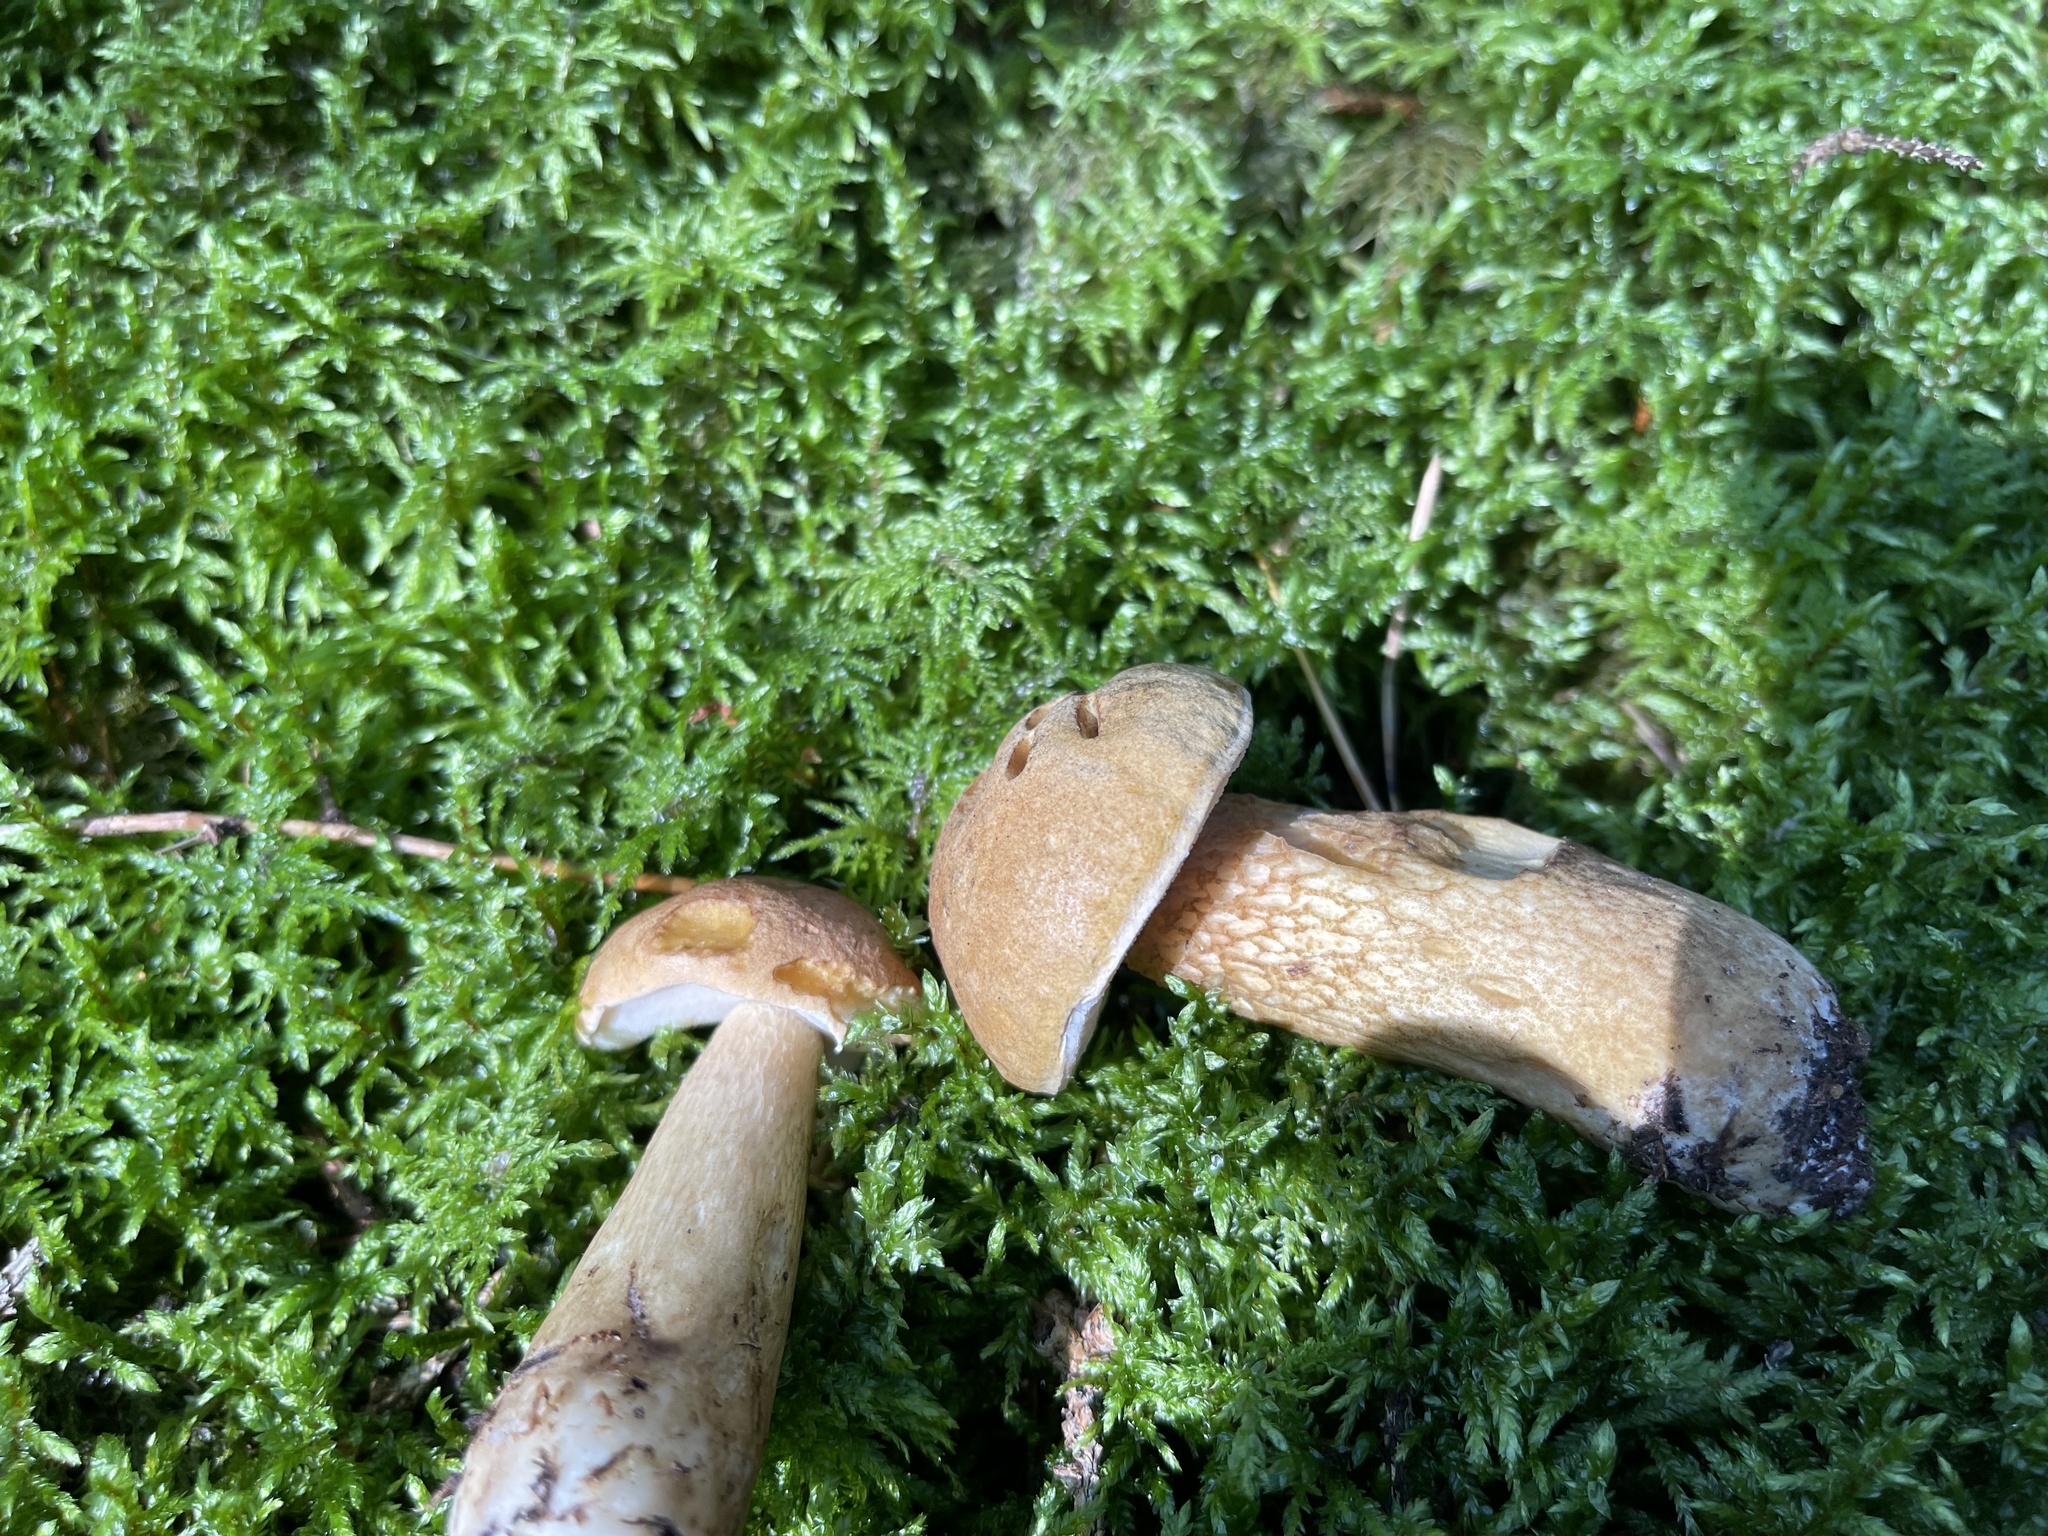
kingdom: Fungi
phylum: Basidiomycota
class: Agaricomycetes
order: Boletales
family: Boletaceae
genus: Tylopilus
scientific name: Tylopilus felleus
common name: Bitter bolete
